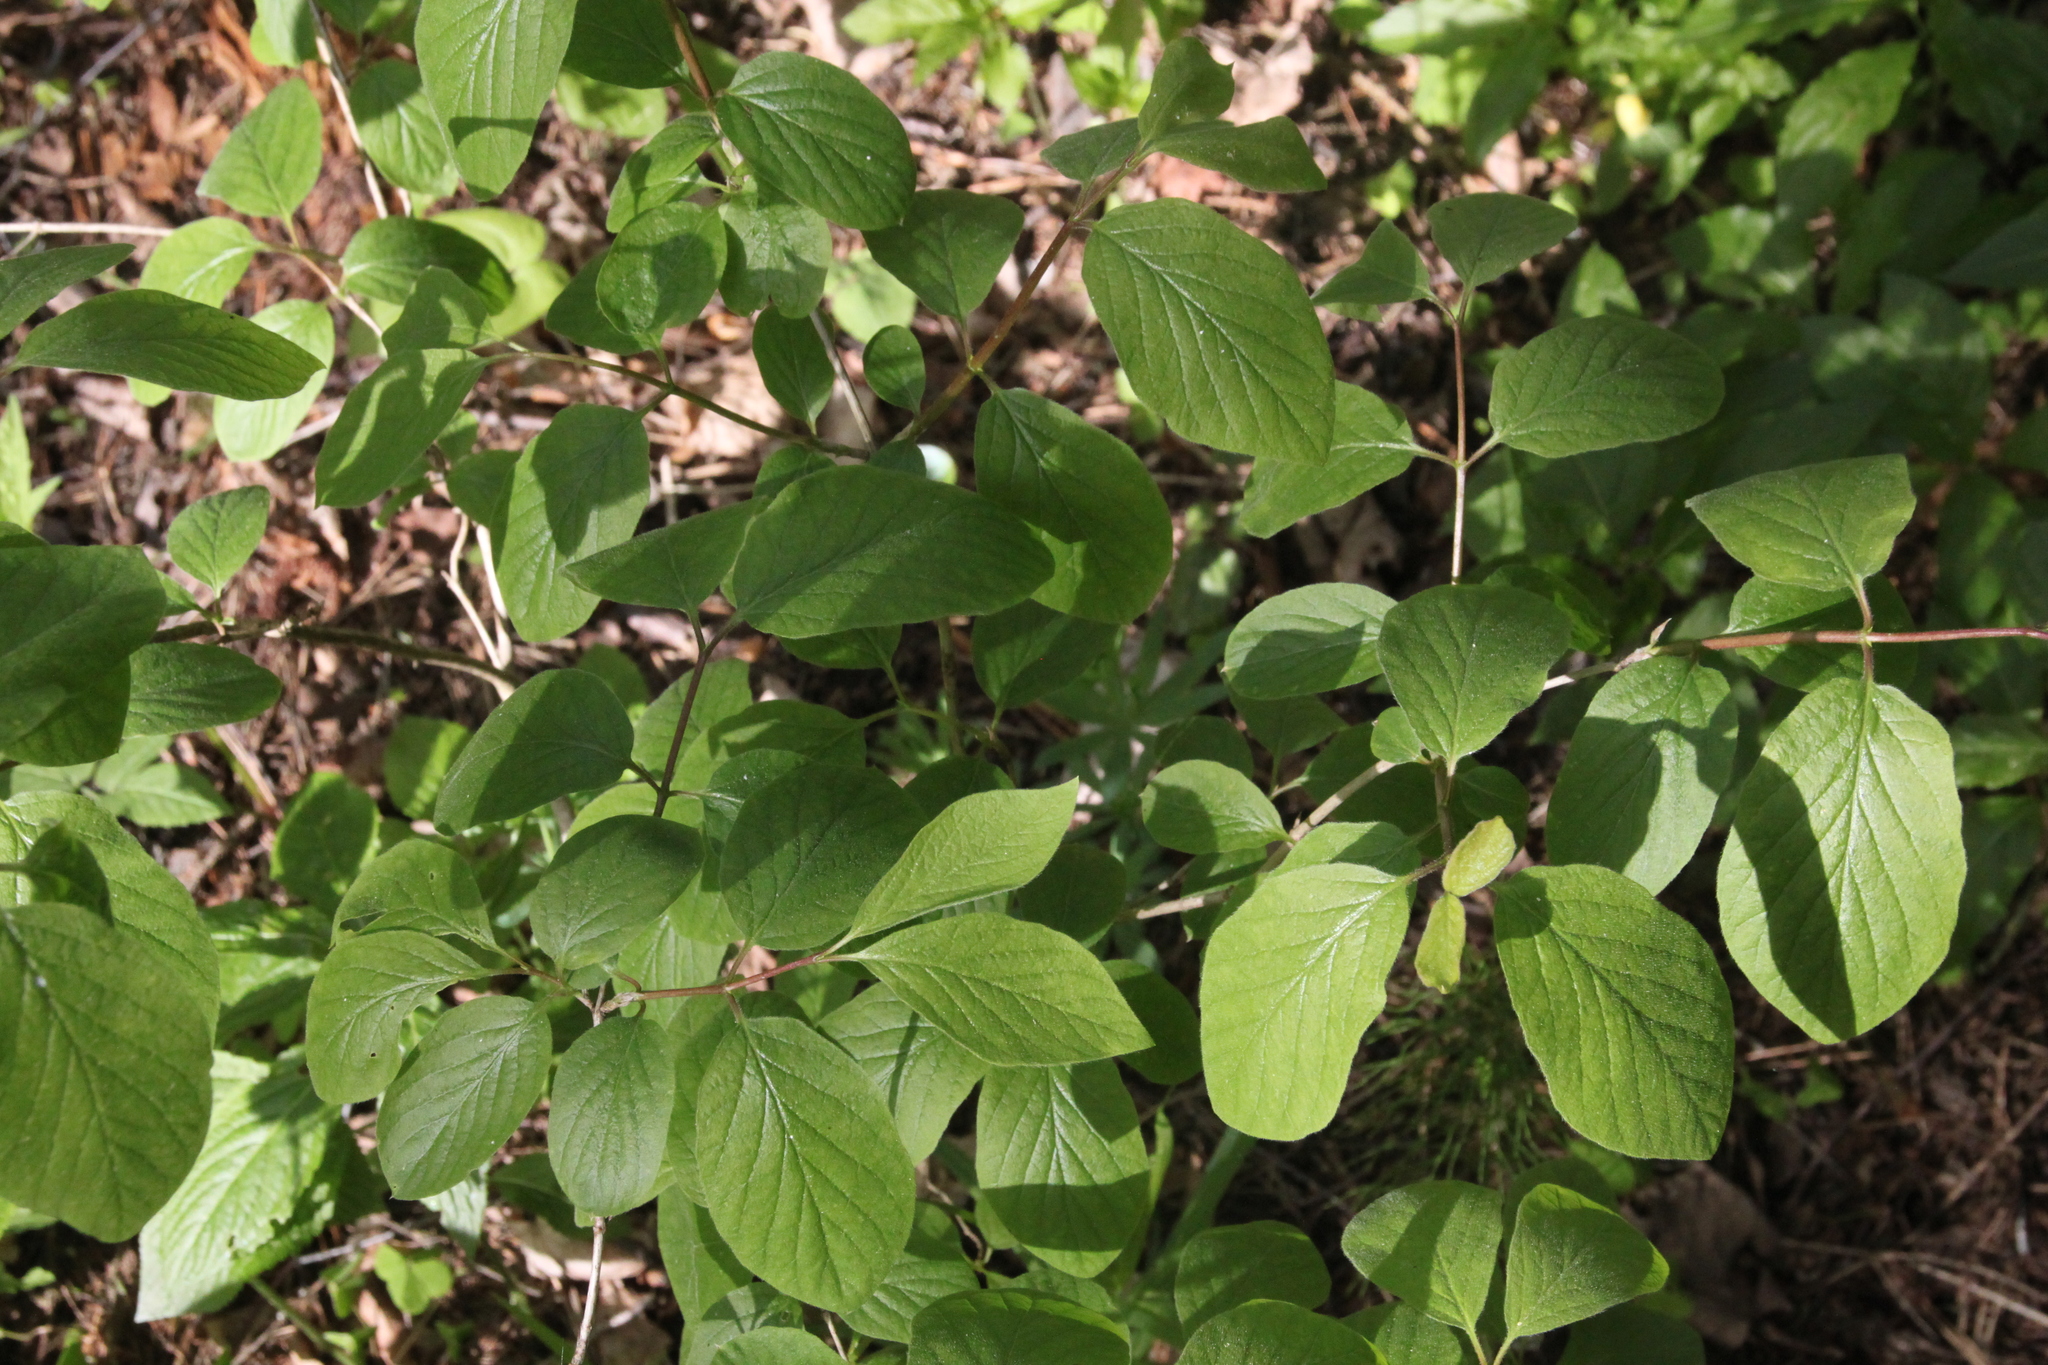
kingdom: Plantae
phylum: Tracheophyta
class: Magnoliopsida
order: Dipsacales
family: Caprifoliaceae
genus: Lonicera
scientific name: Lonicera xylosteum
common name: Fly honeysuckle
